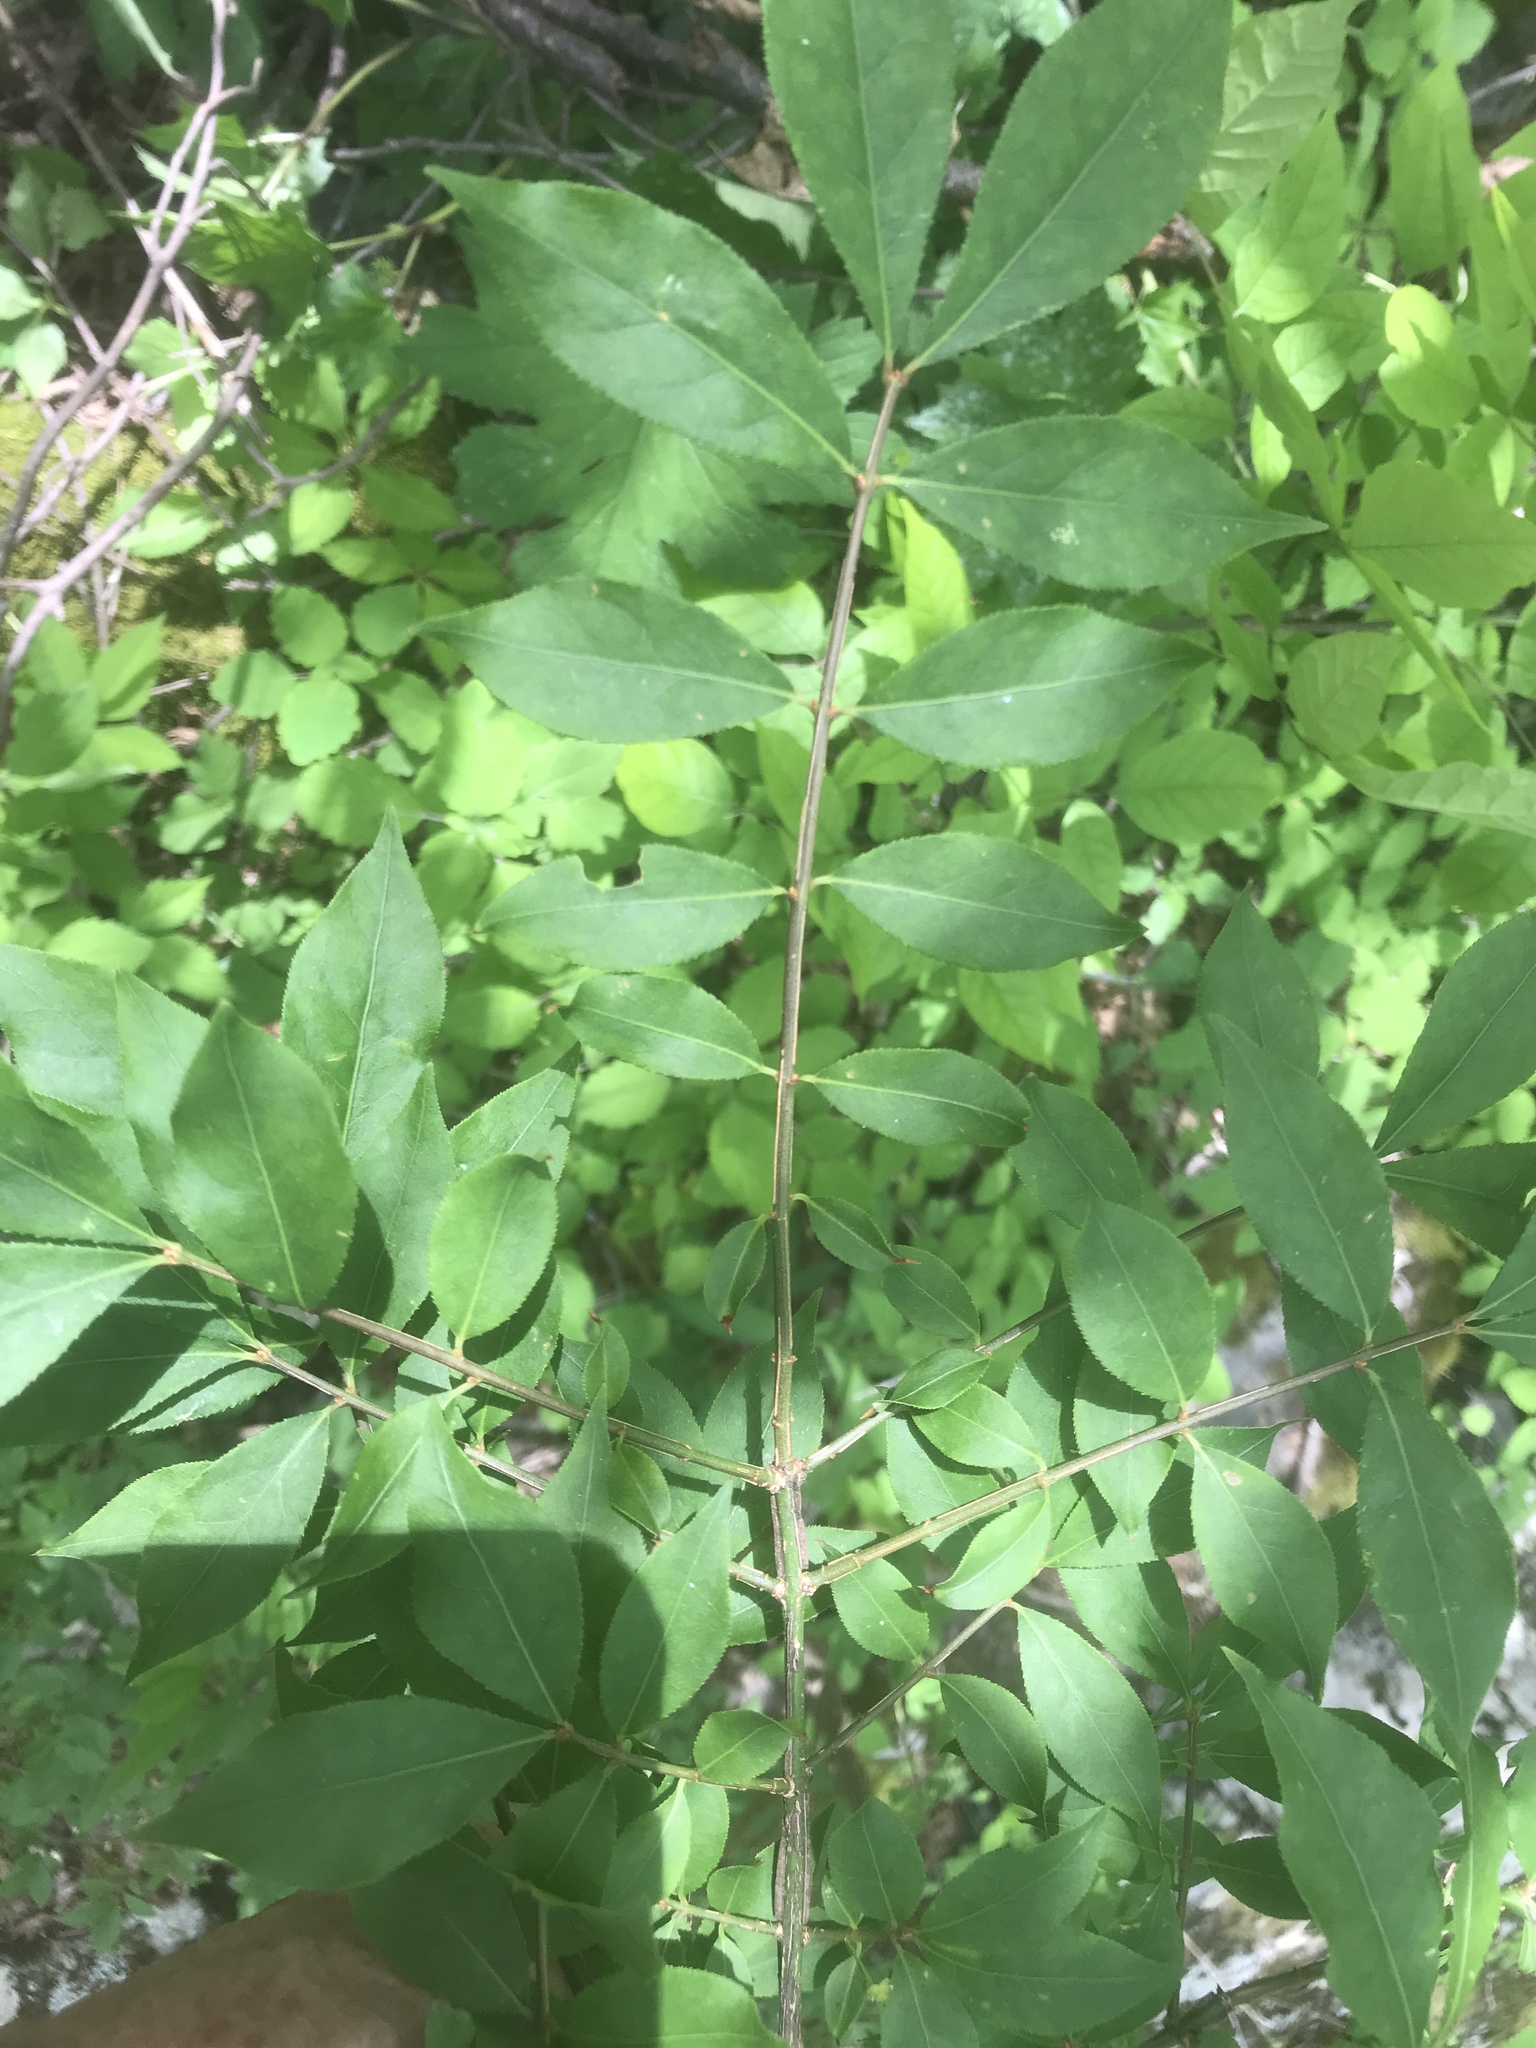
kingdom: Plantae
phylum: Tracheophyta
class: Magnoliopsida
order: Celastrales
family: Celastraceae
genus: Euonymus
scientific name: Euonymus alatus
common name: Winged euonymus
